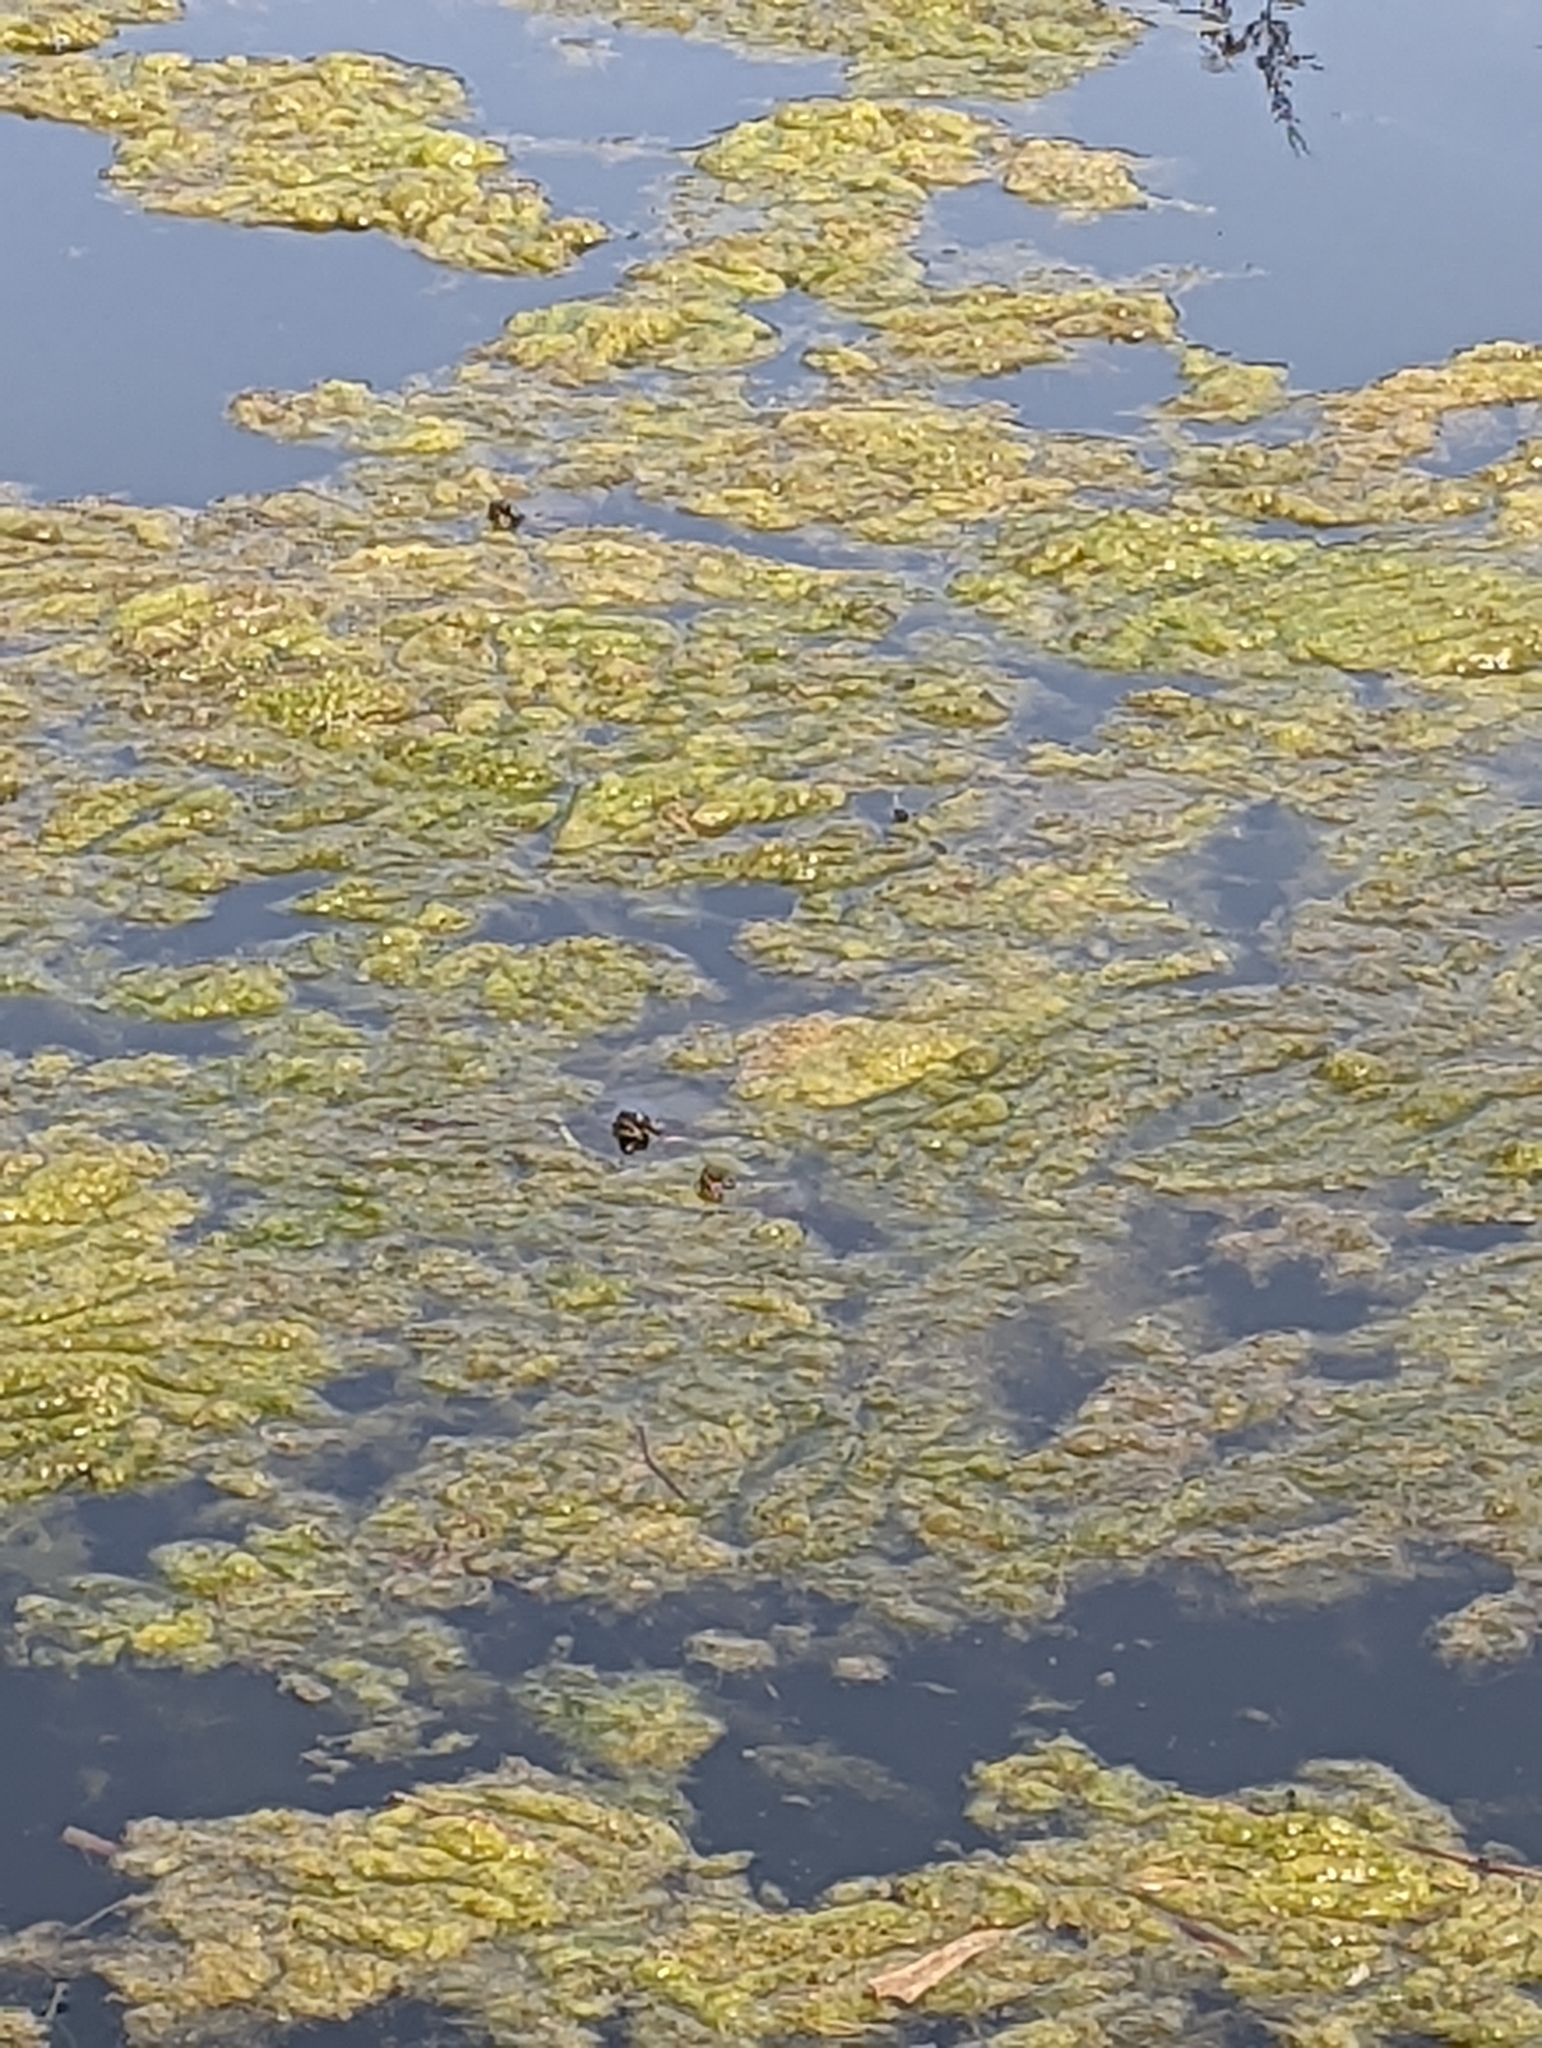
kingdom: Animalia
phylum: Chordata
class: Testudines
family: Emydidae
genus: Chrysemys
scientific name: Chrysemys picta
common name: Painted turtle
